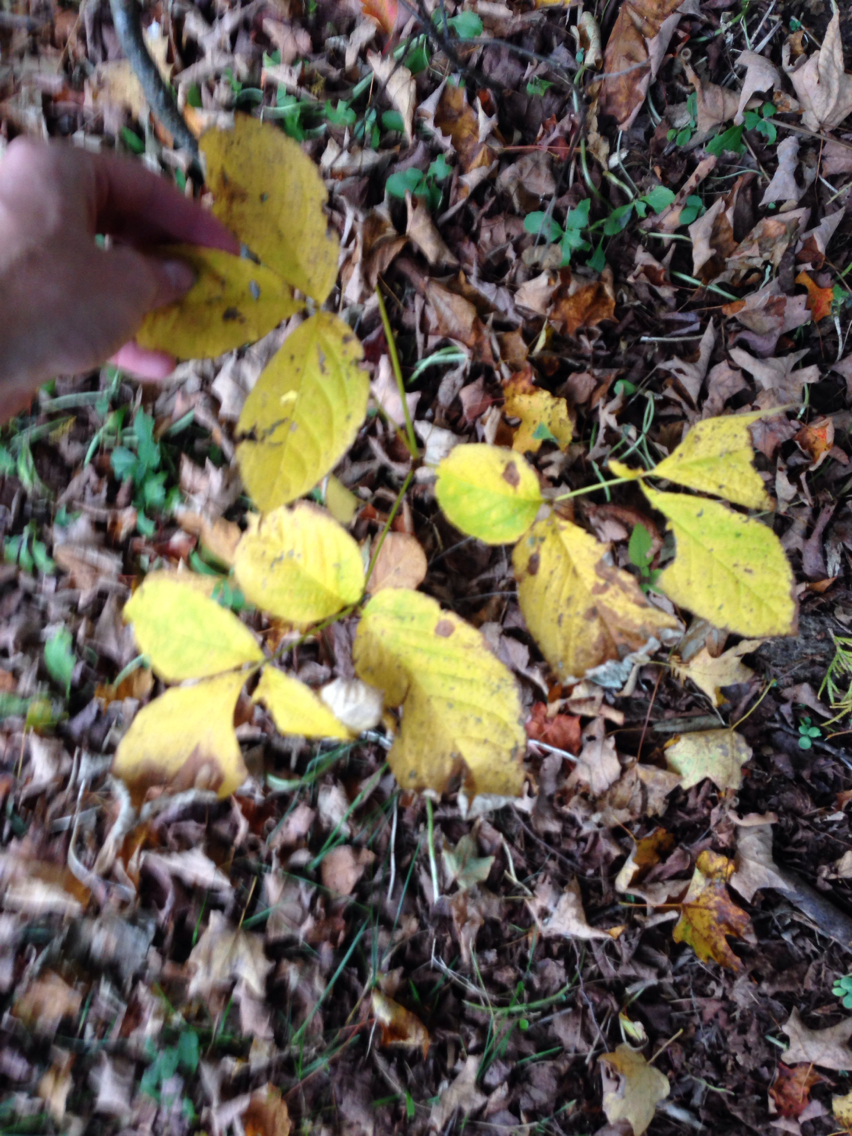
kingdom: Plantae
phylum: Tracheophyta
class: Magnoliopsida
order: Apiales
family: Araliaceae
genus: Aralia
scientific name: Aralia nudicaulis
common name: Wild sarsaparilla
